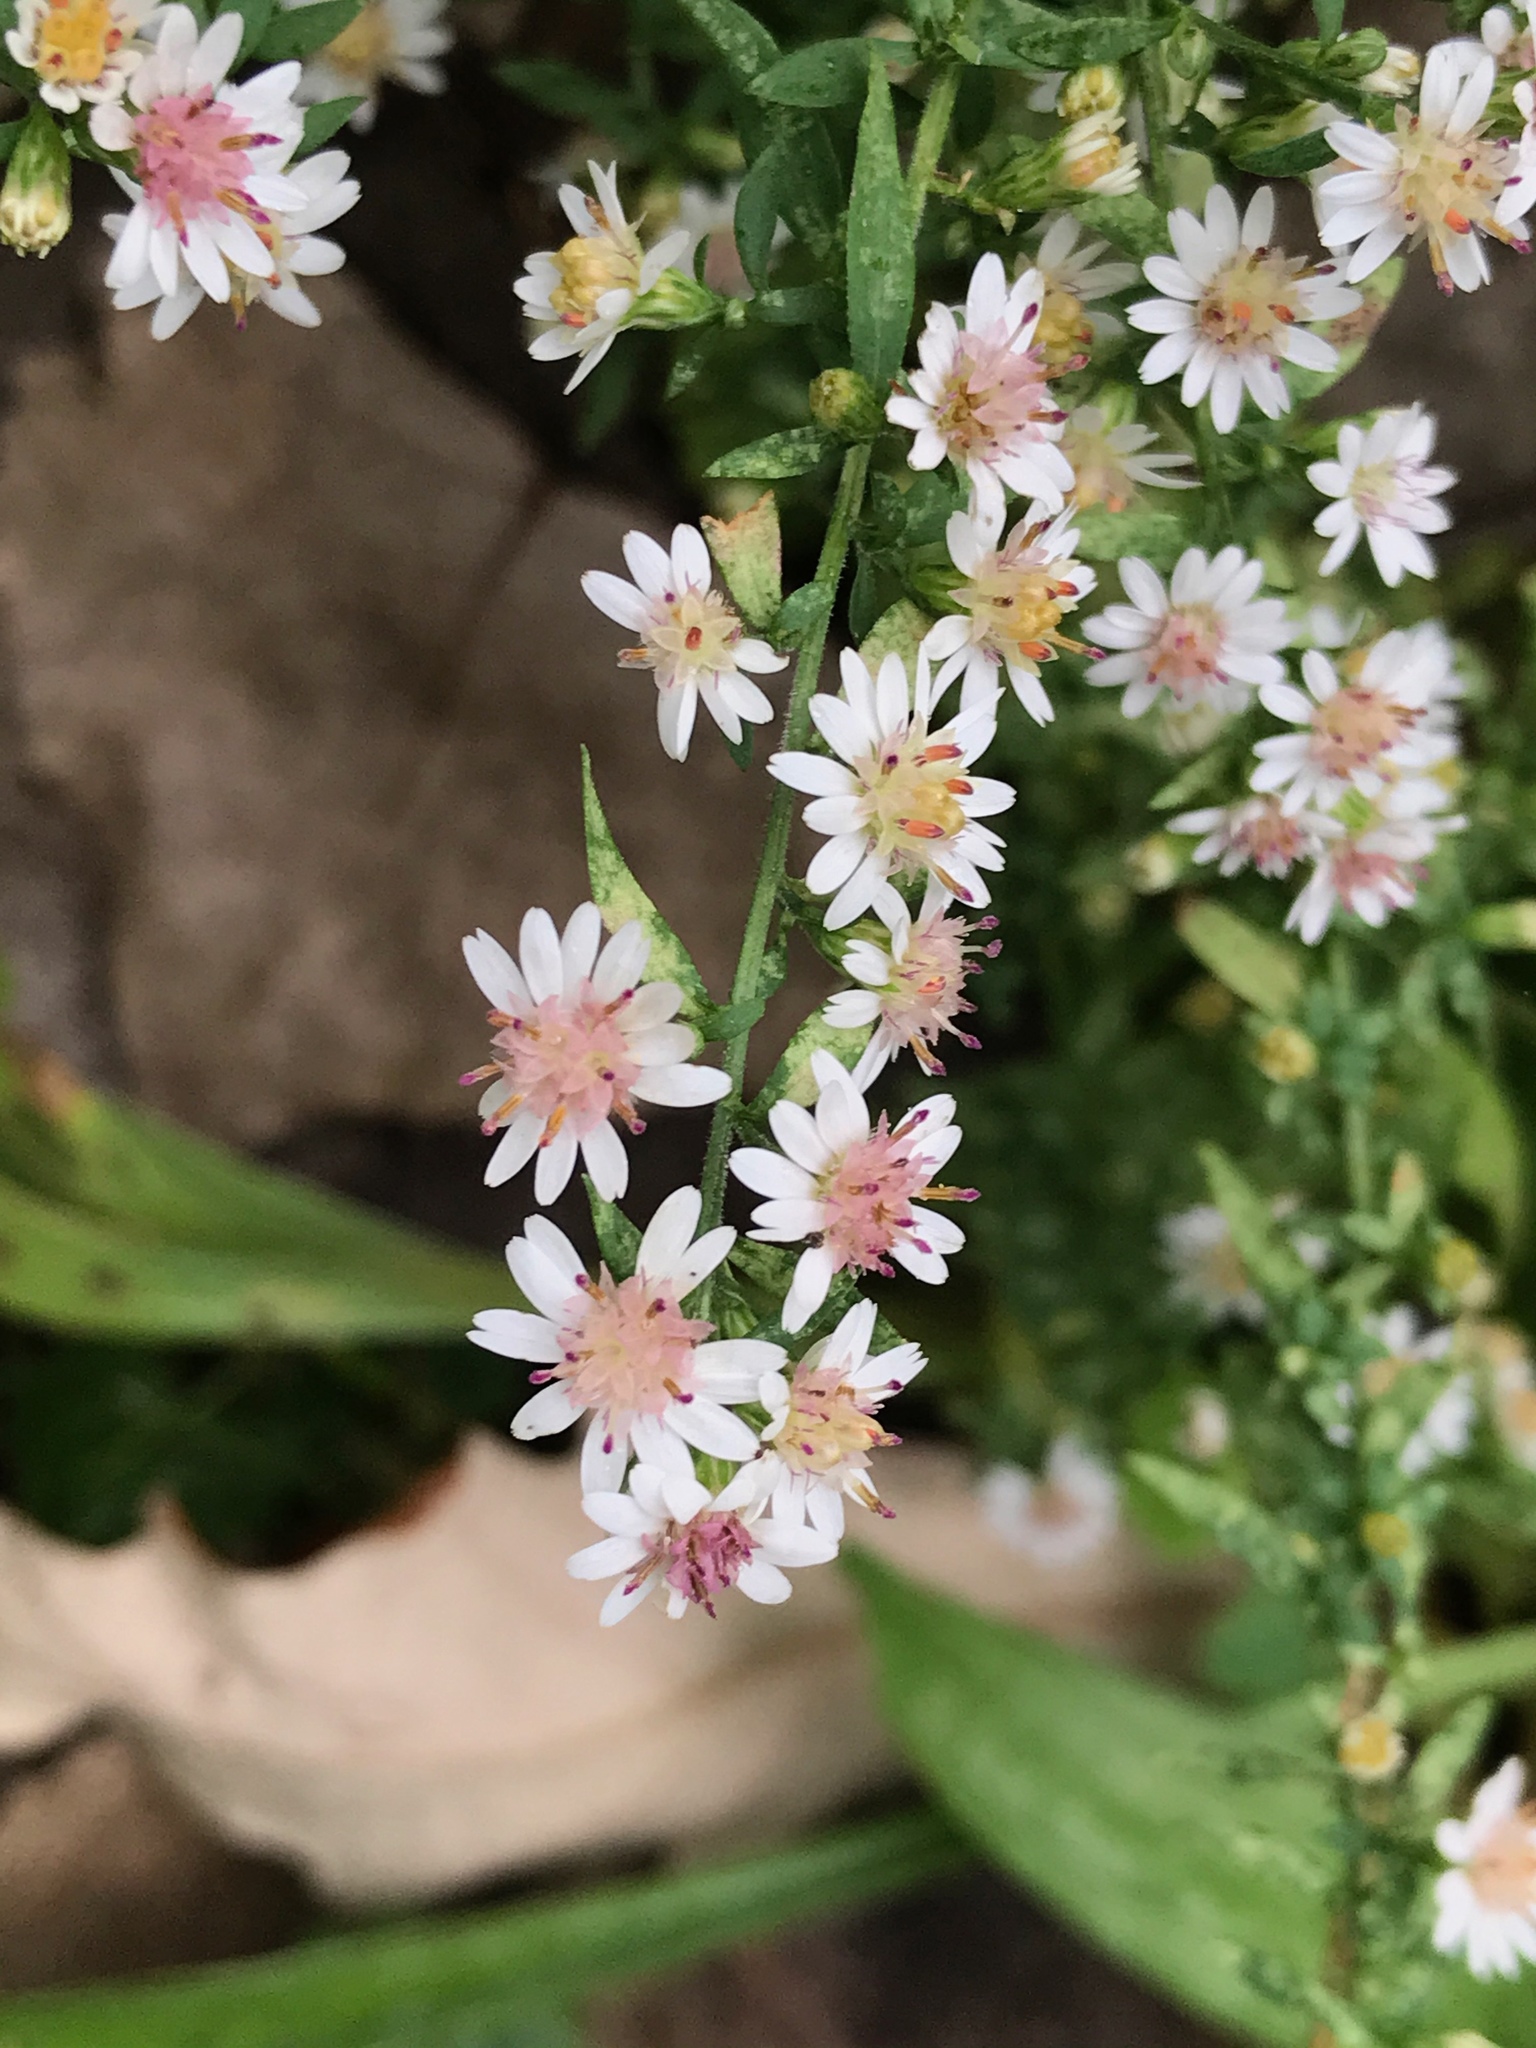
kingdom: Plantae
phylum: Tracheophyta
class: Magnoliopsida
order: Asterales
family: Asteraceae
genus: Symphyotrichum
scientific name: Symphyotrichum lateriflorum
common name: Calico aster
